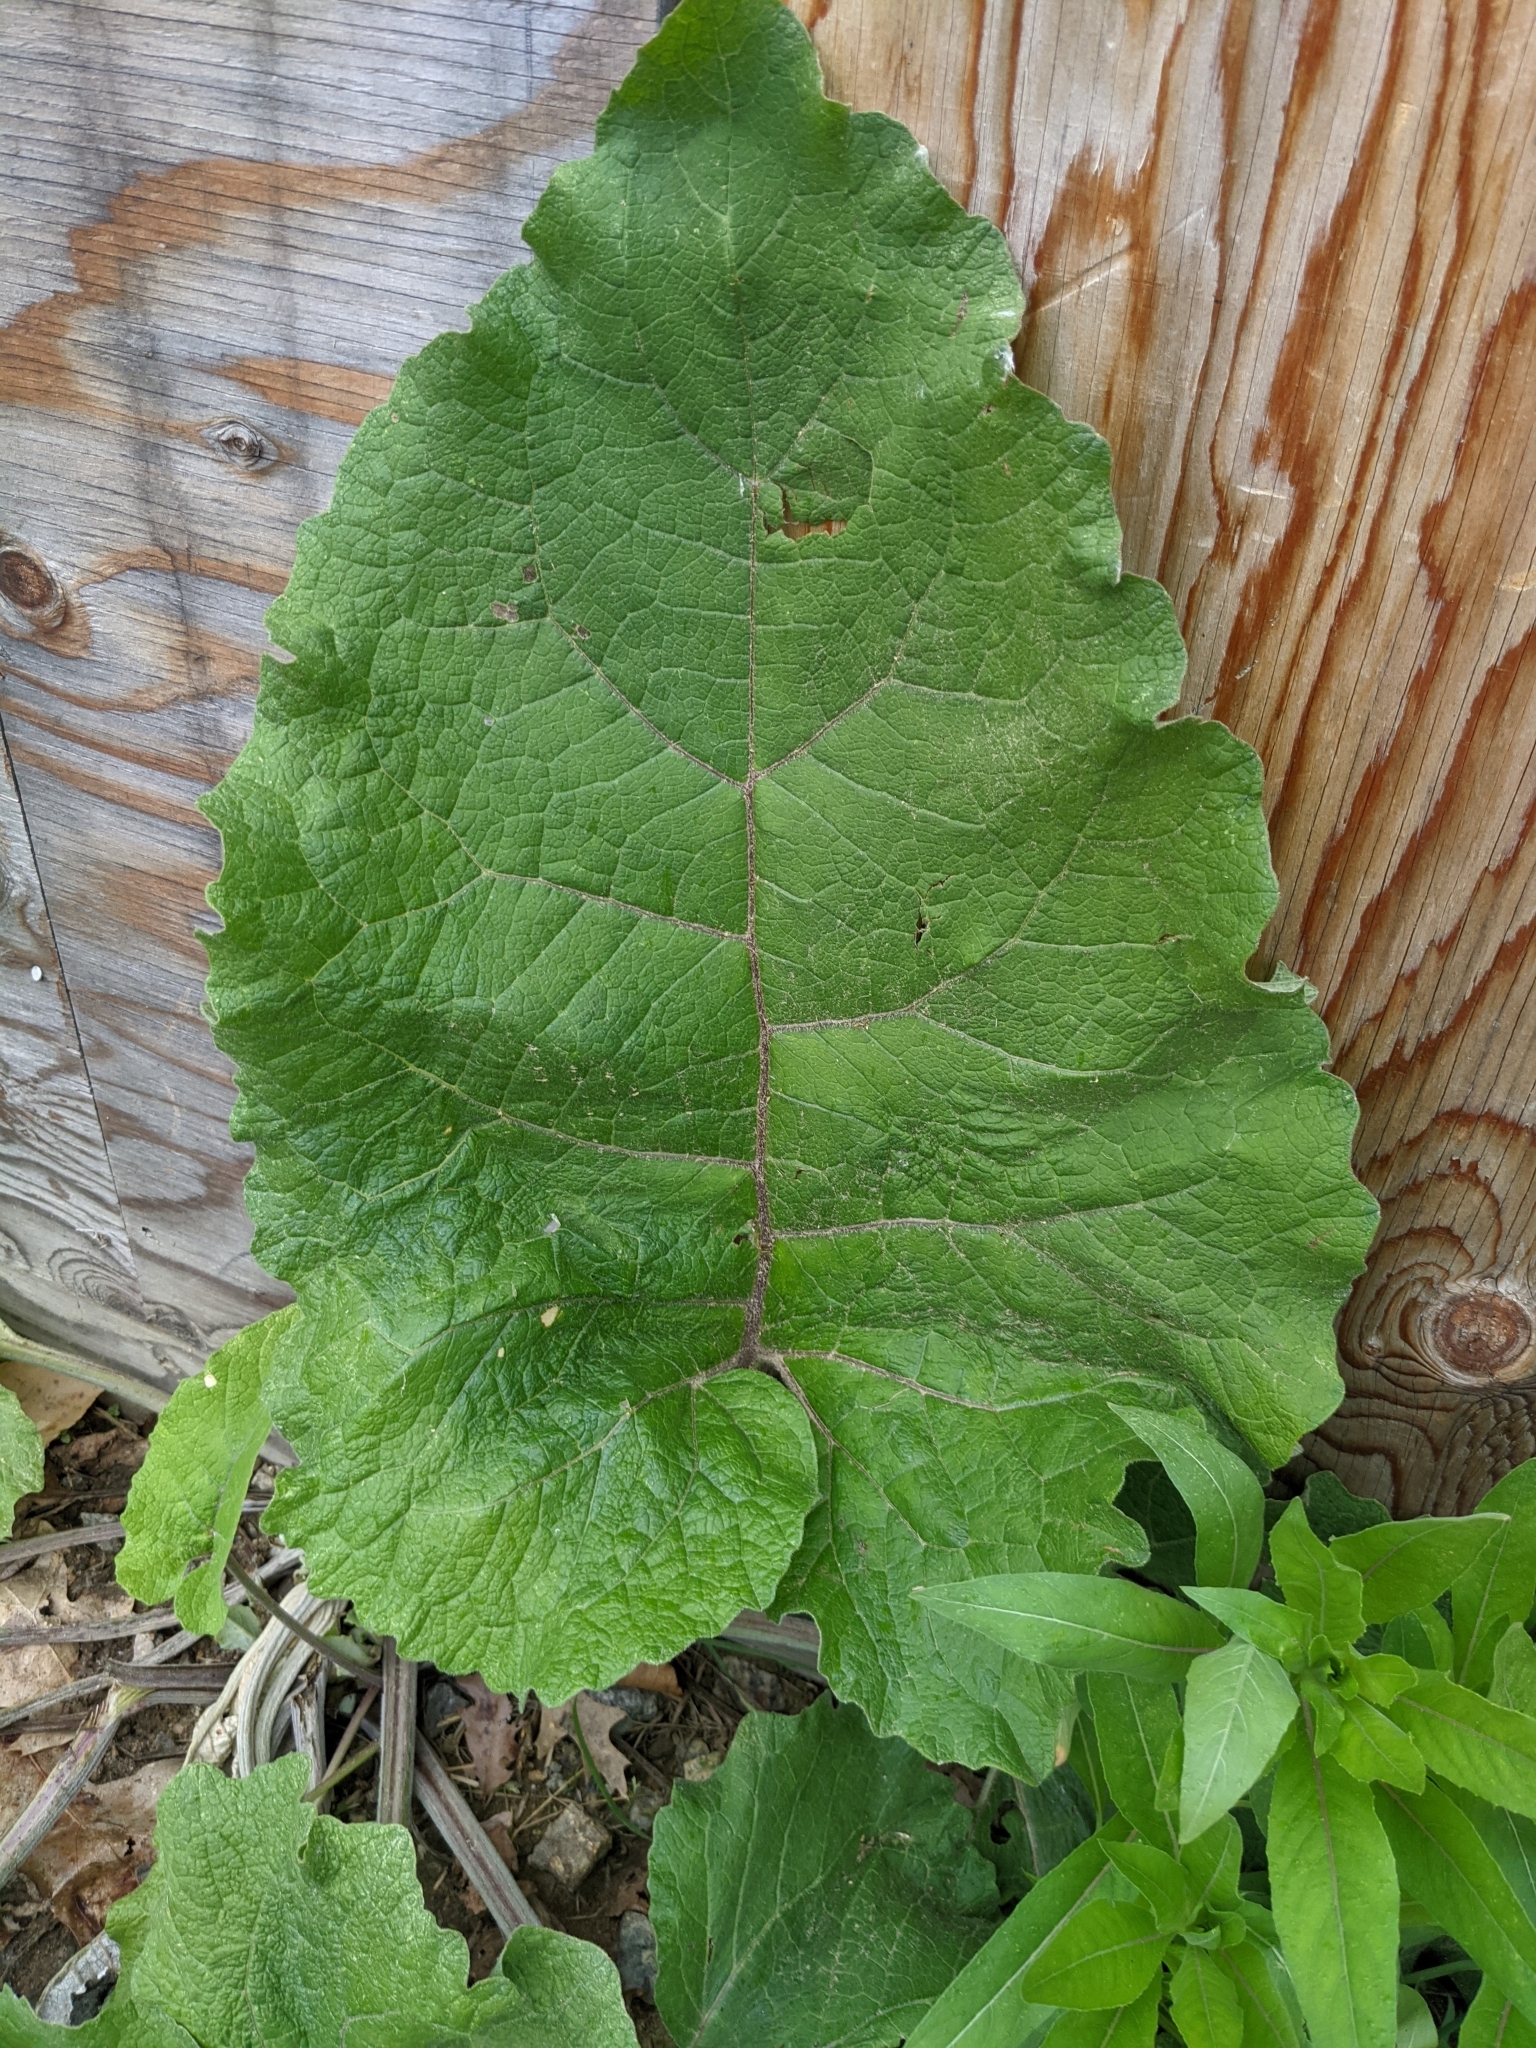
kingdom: Plantae
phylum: Tracheophyta
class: Magnoliopsida
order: Asterales
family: Asteraceae
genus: Arctium
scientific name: Arctium
